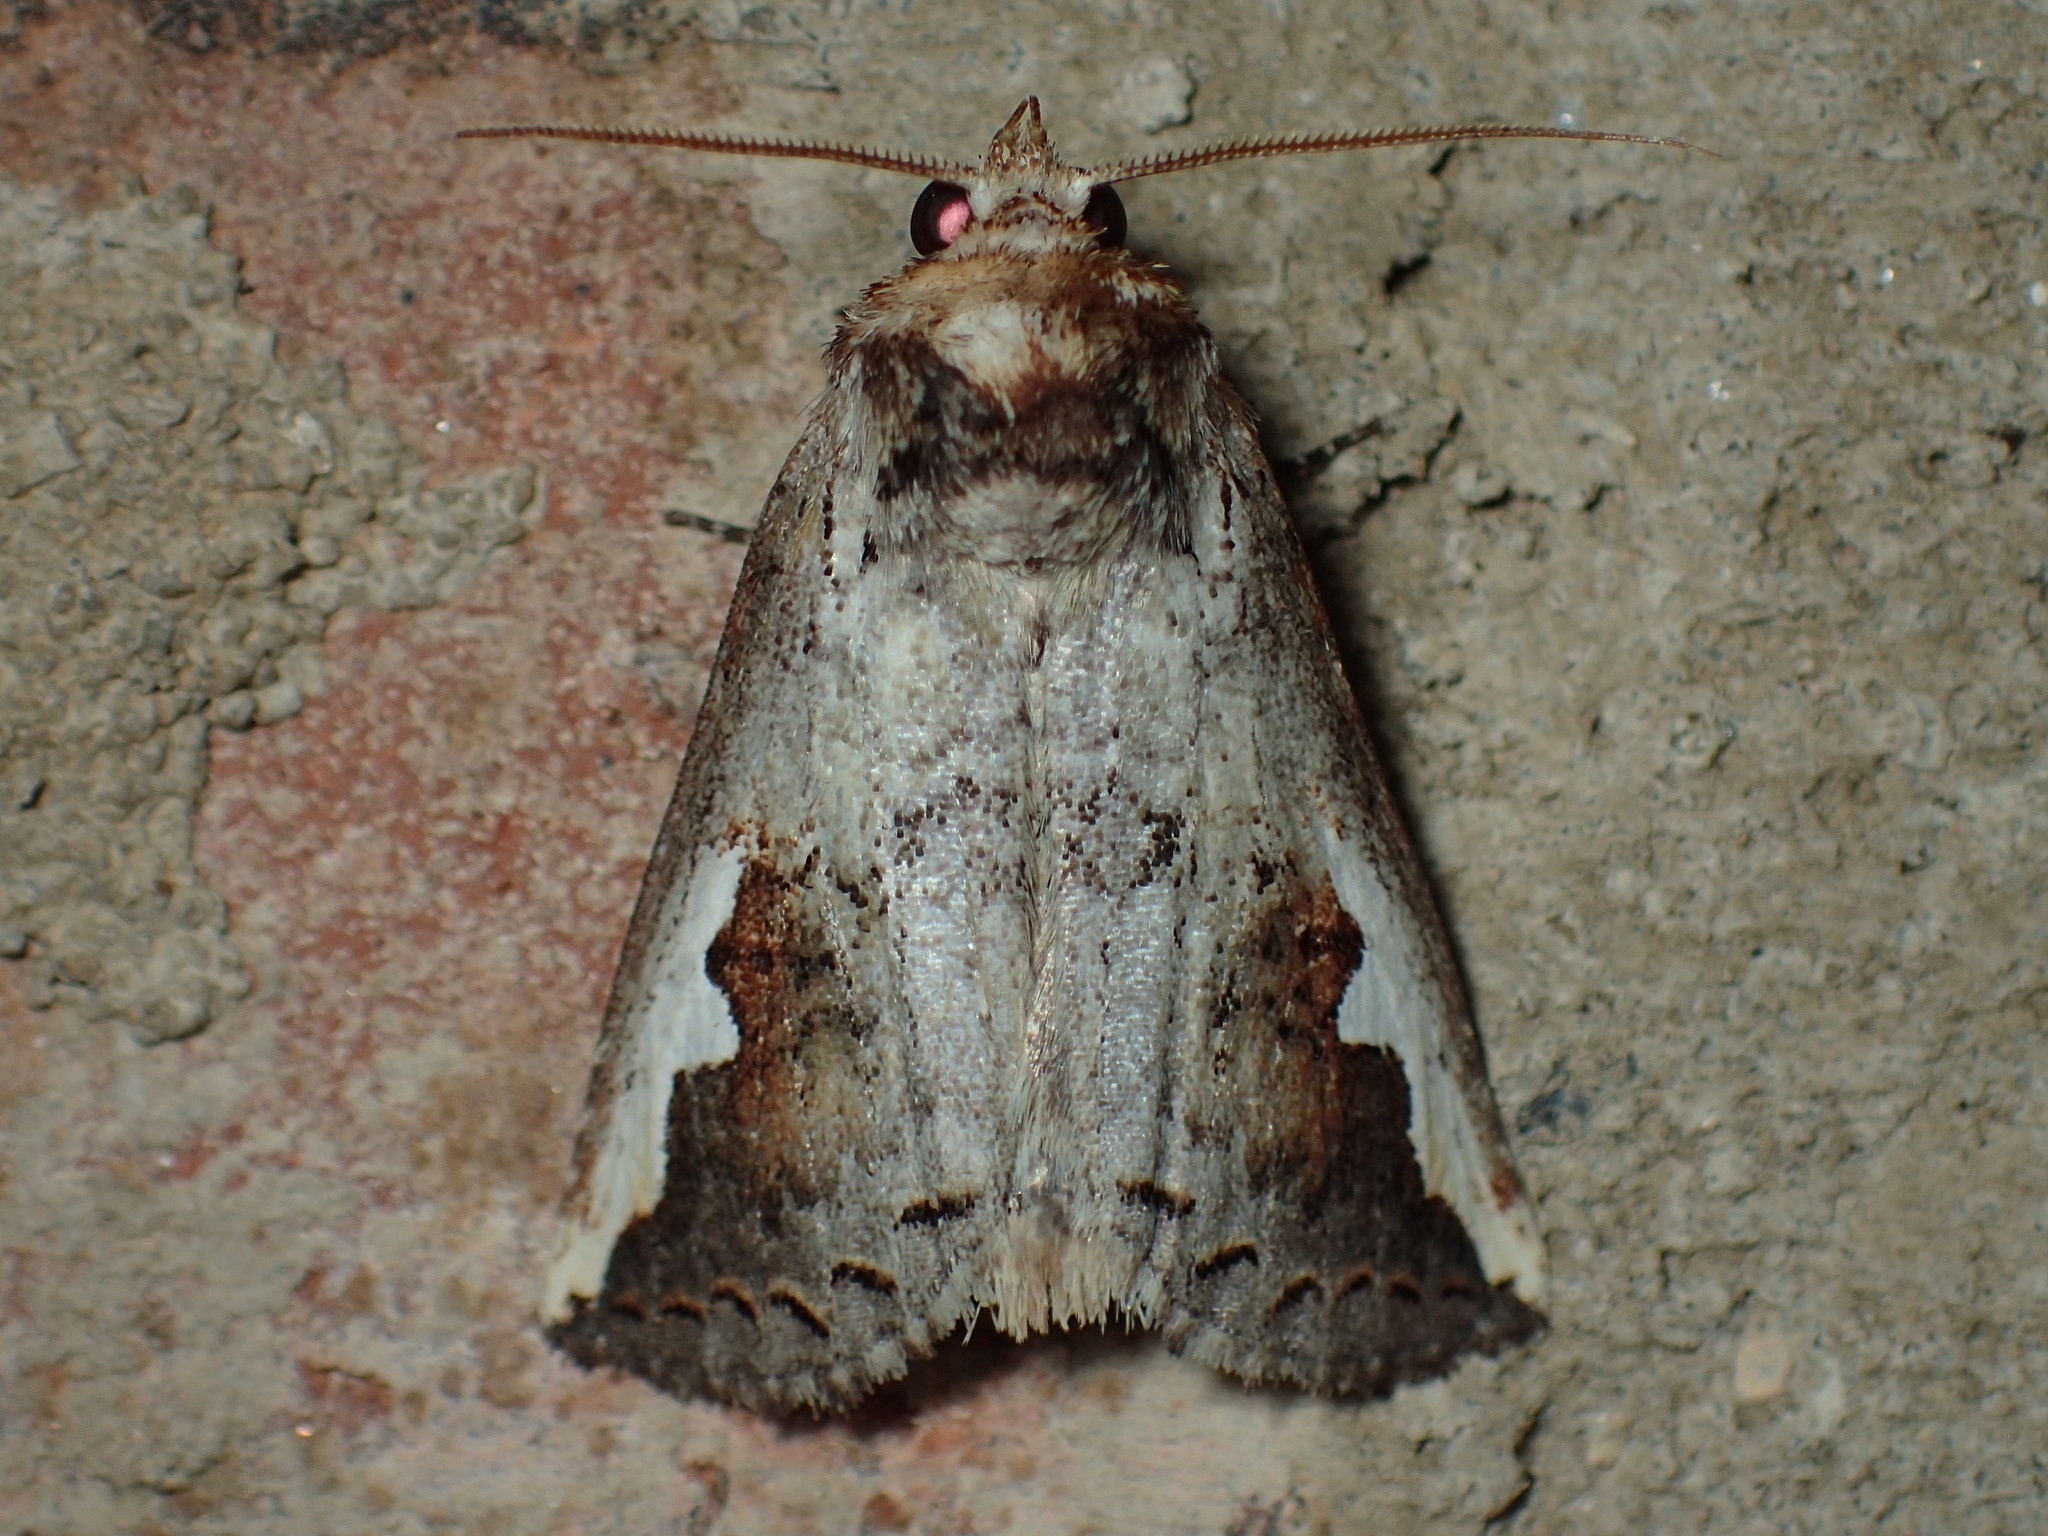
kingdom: Animalia
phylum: Arthropoda
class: Insecta
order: Lepidoptera
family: Notodontidae
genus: Symmerista
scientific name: Symmerista
